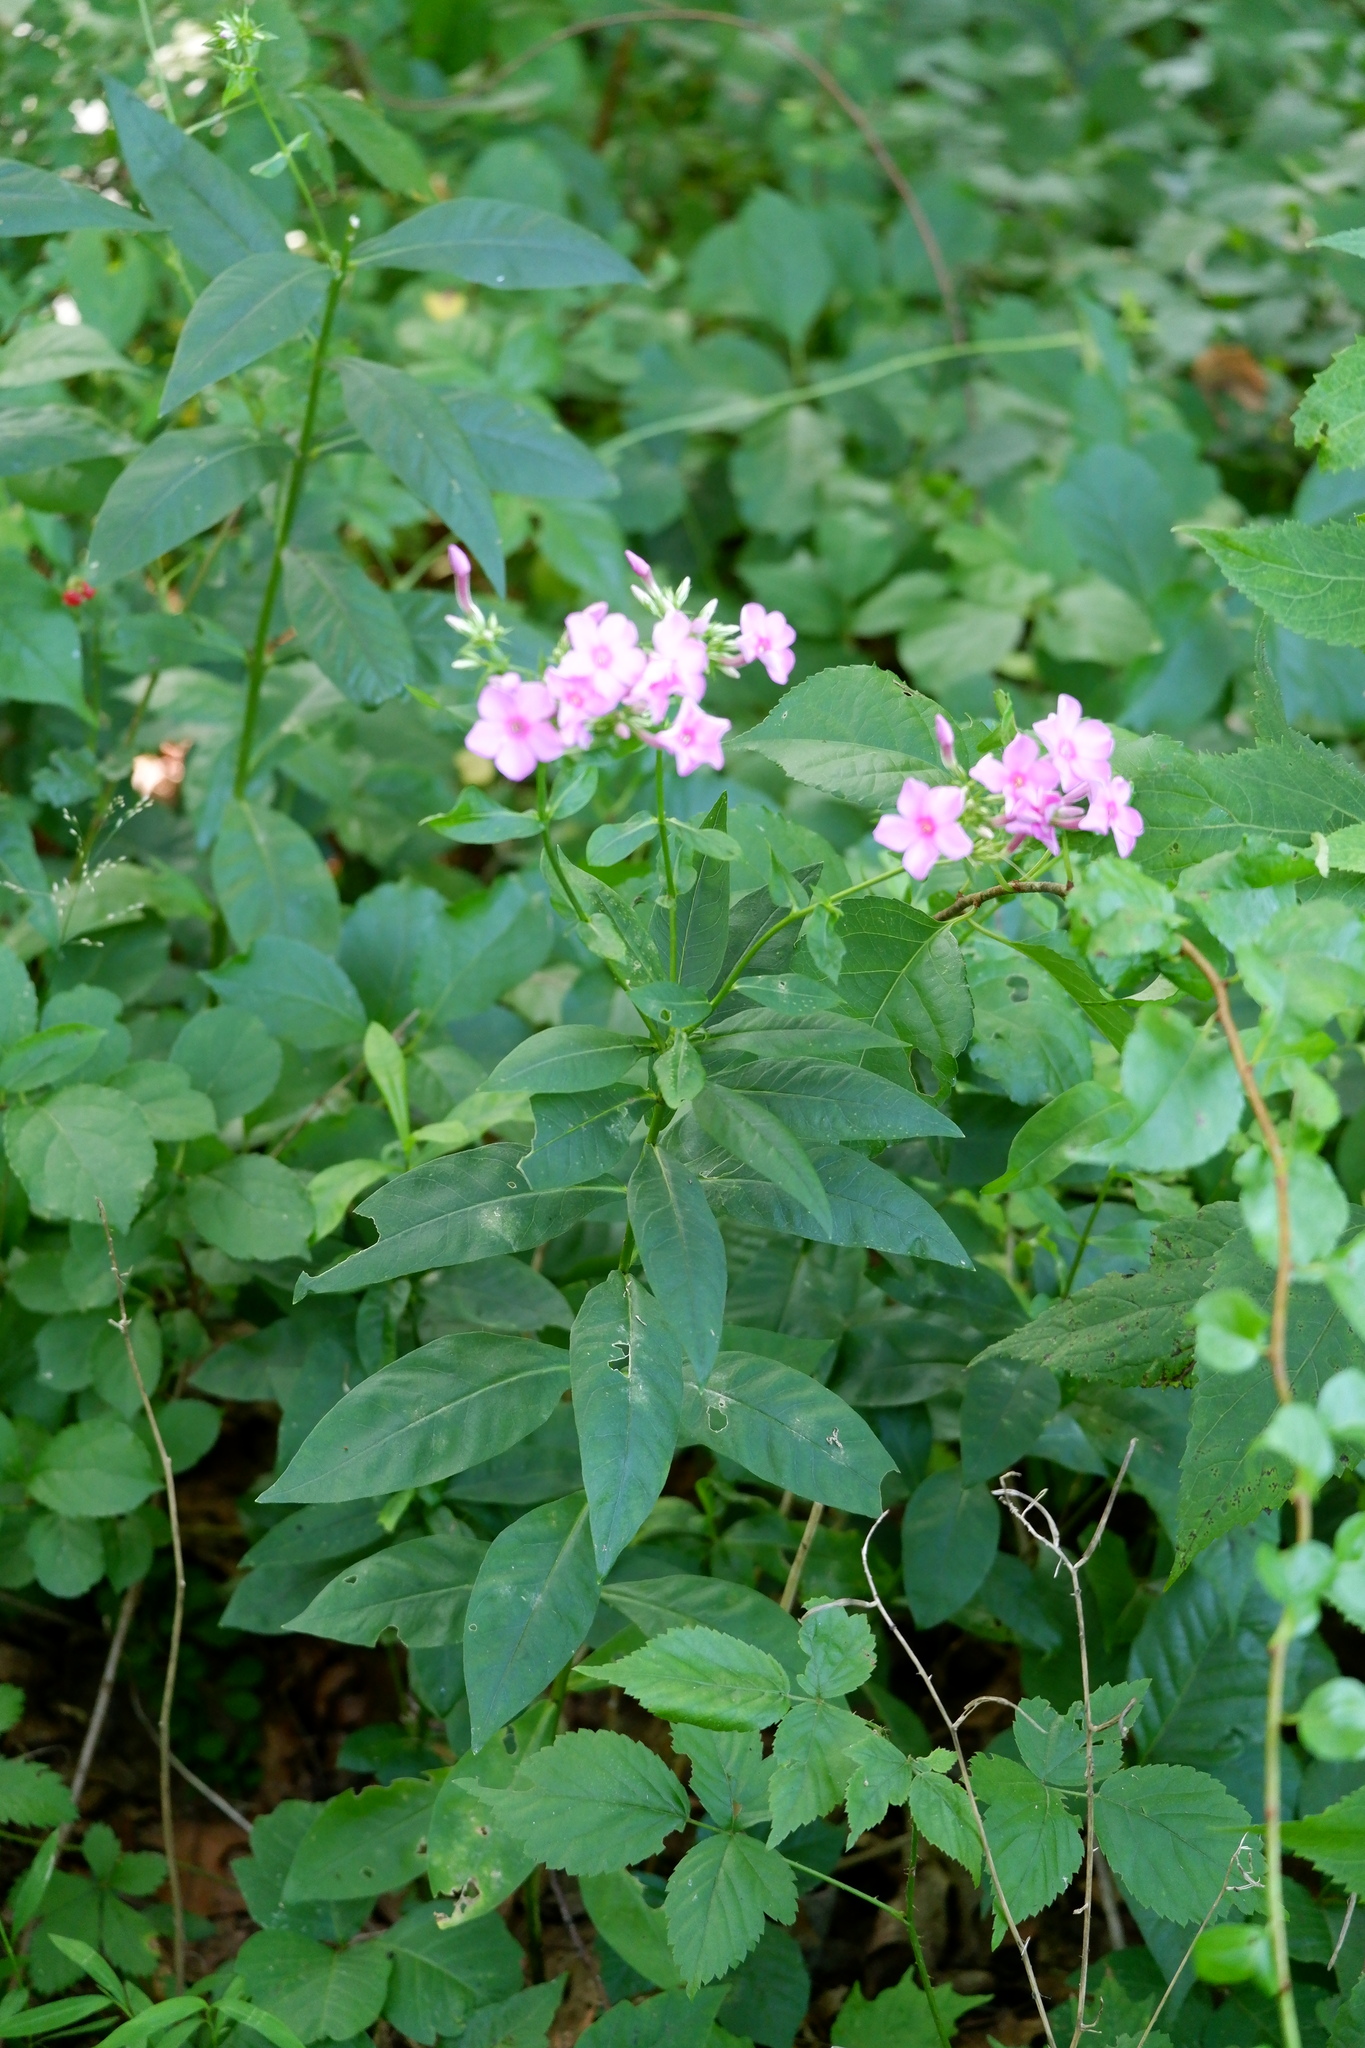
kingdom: Plantae
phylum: Tracheophyta
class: Magnoliopsida
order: Ericales
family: Polemoniaceae
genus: Phlox
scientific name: Phlox paniculata
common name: Fall phlox
